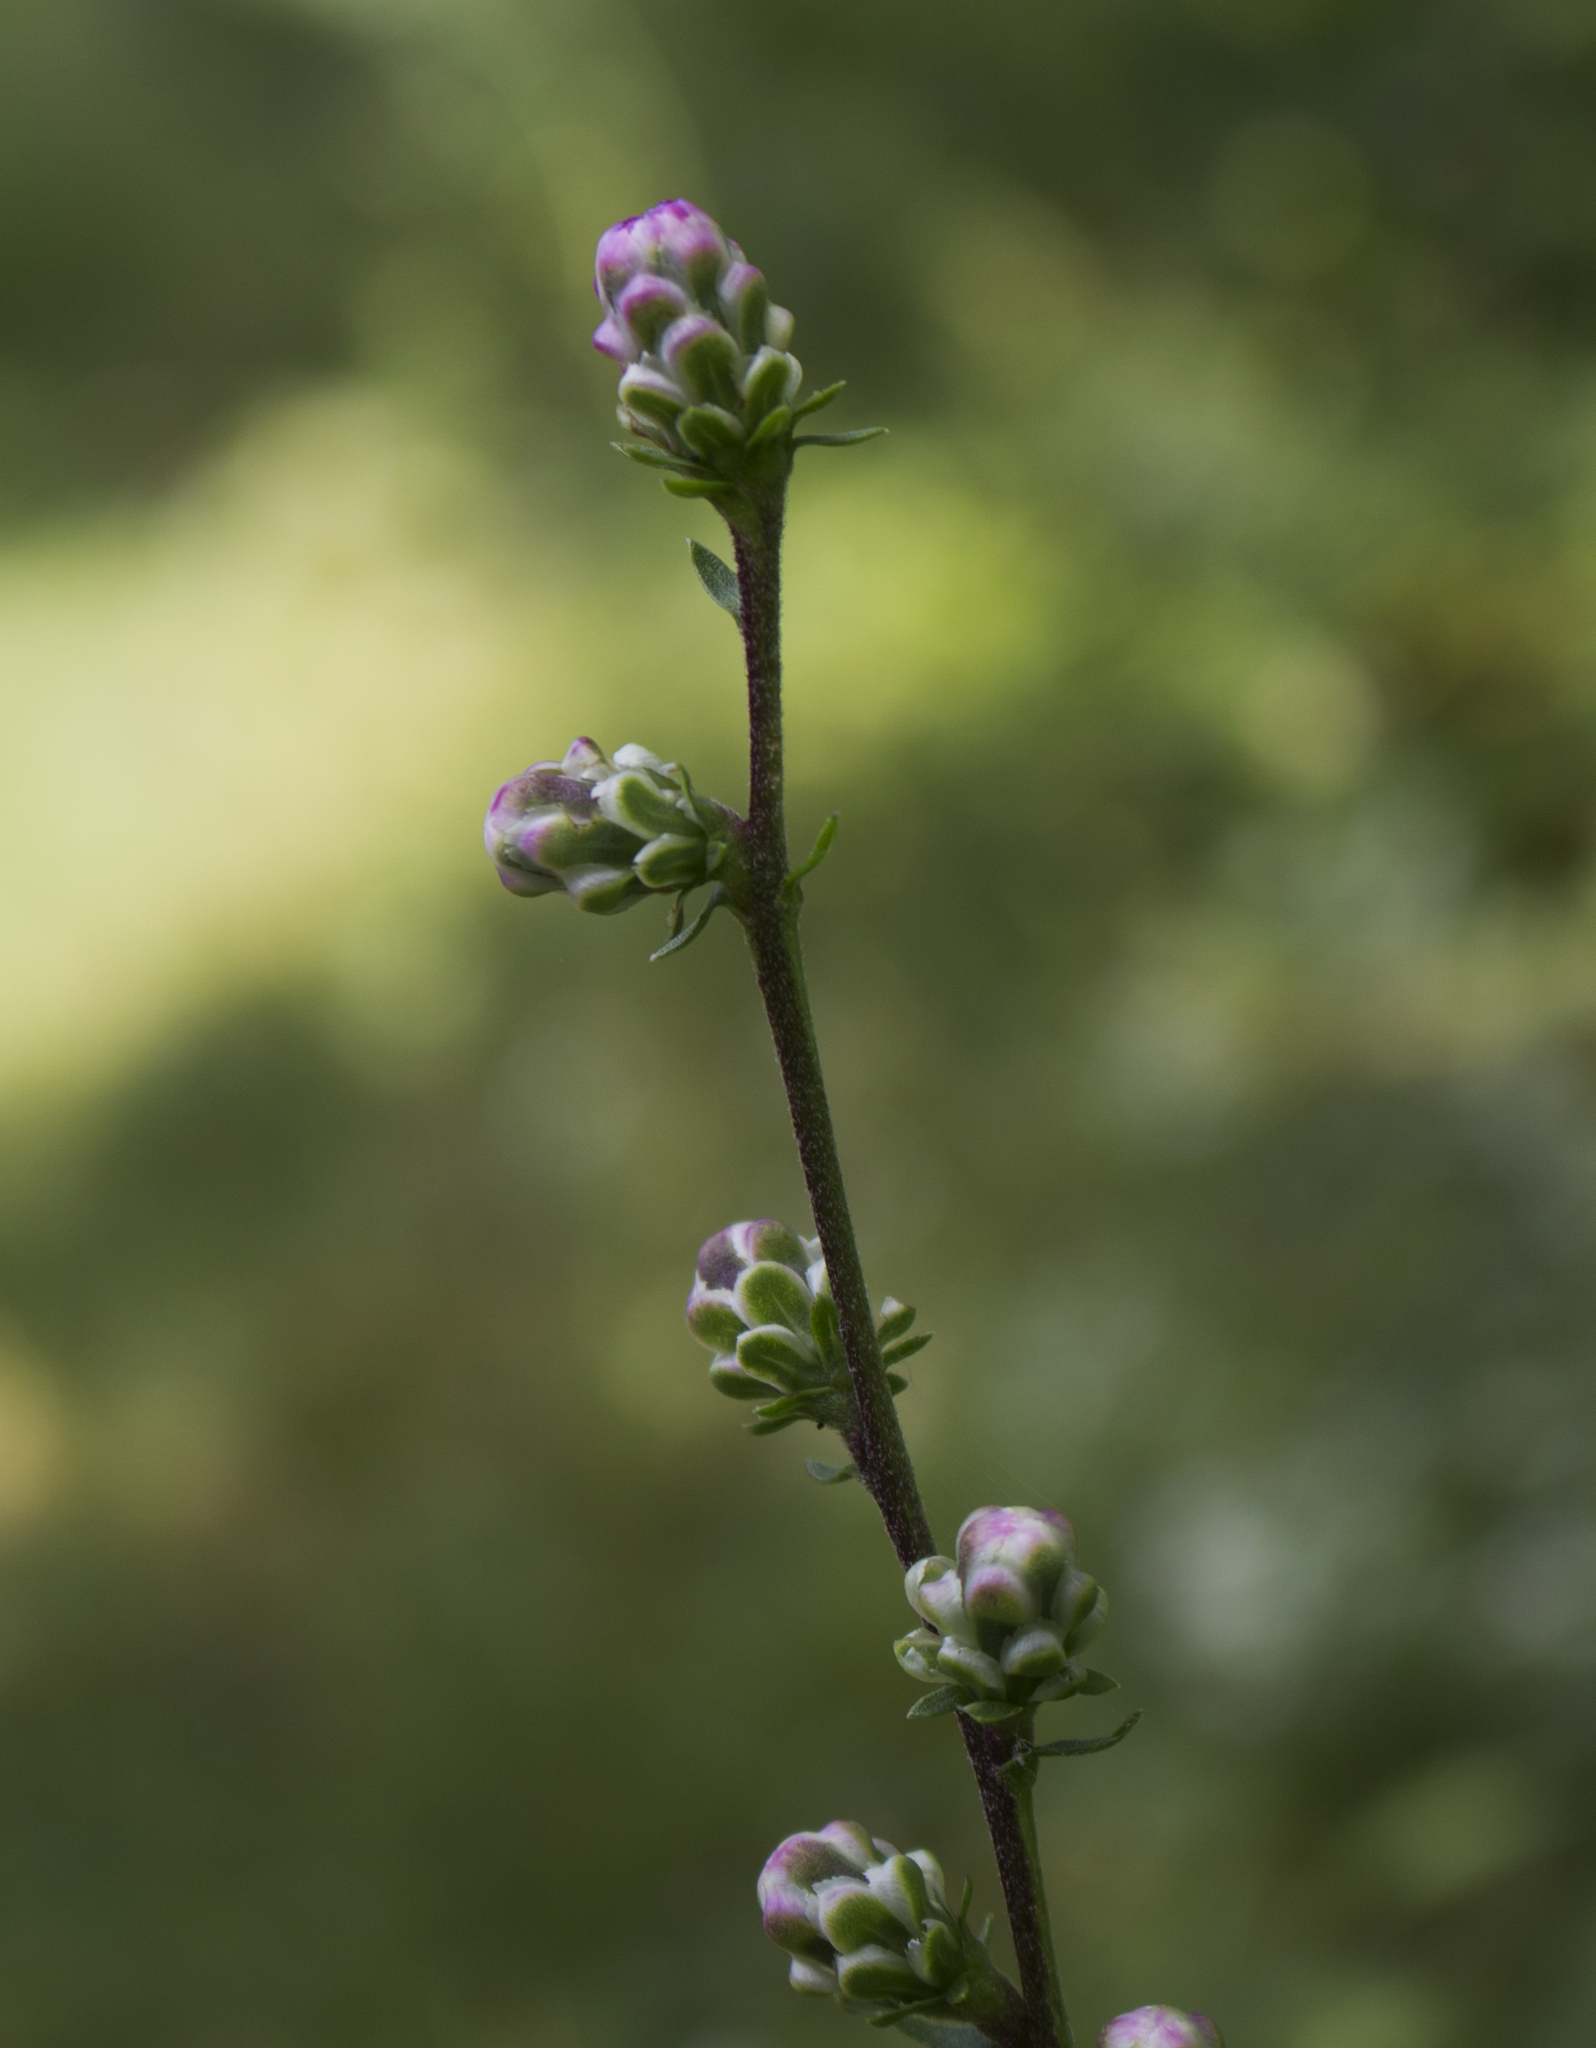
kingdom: Plantae
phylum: Tracheophyta
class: Magnoliopsida
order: Asterales
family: Asteraceae
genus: Liatris
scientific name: Liatris aspera
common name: Lacerate blazing-star
